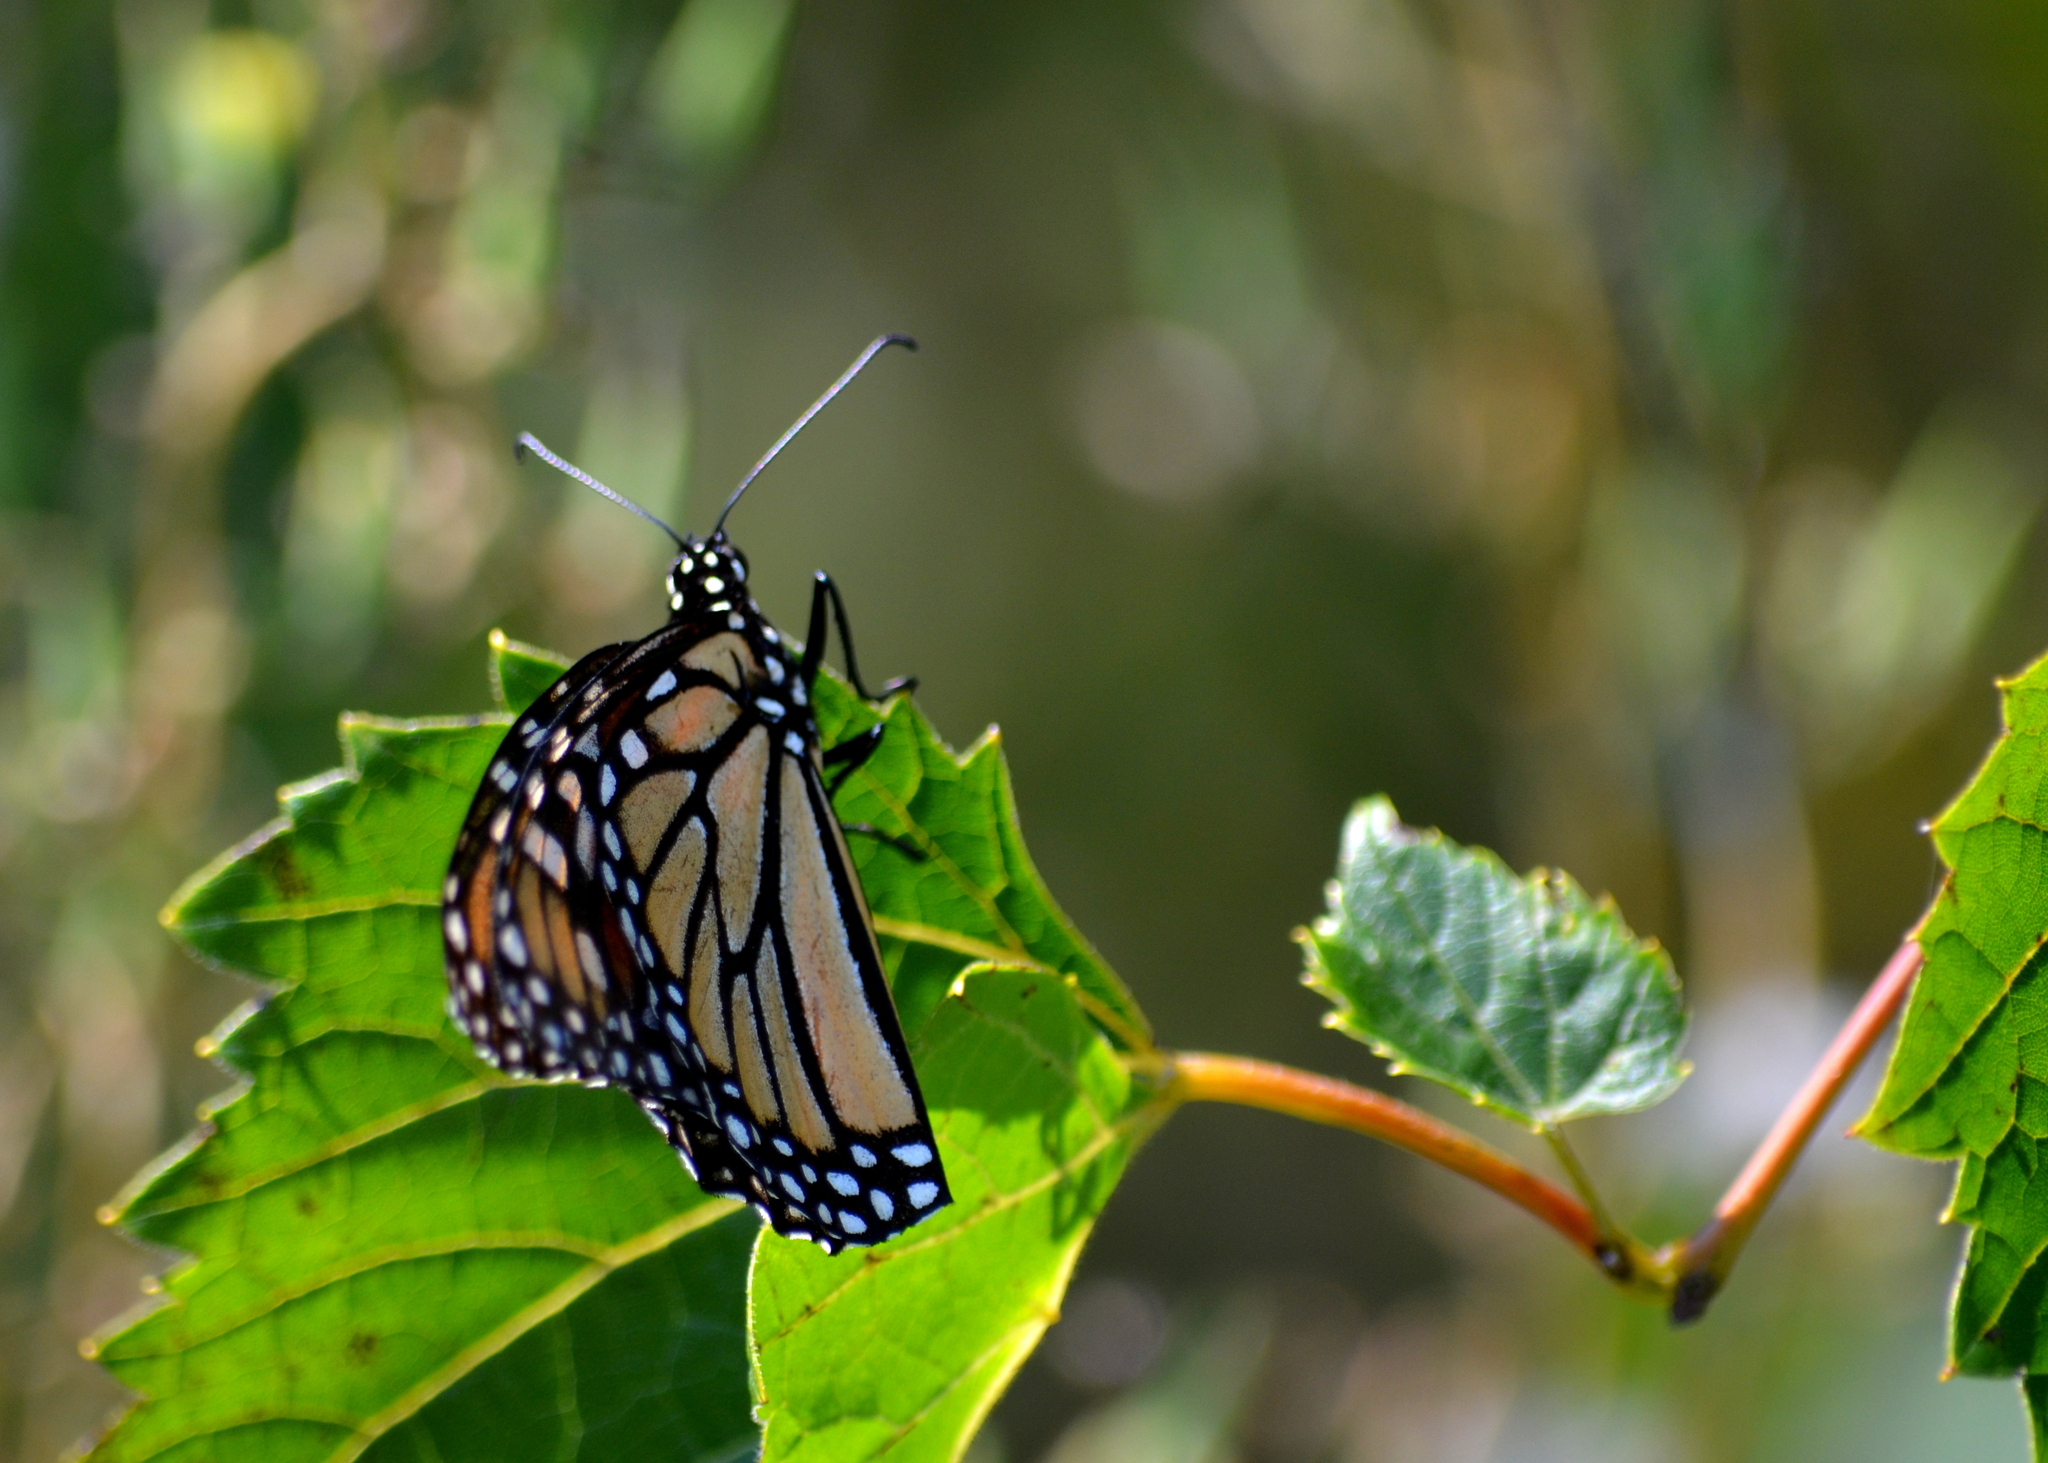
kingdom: Animalia
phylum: Arthropoda
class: Insecta
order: Lepidoptera
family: Nymphalidae
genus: Danaus
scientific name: Danaus plexippus
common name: Monarch
